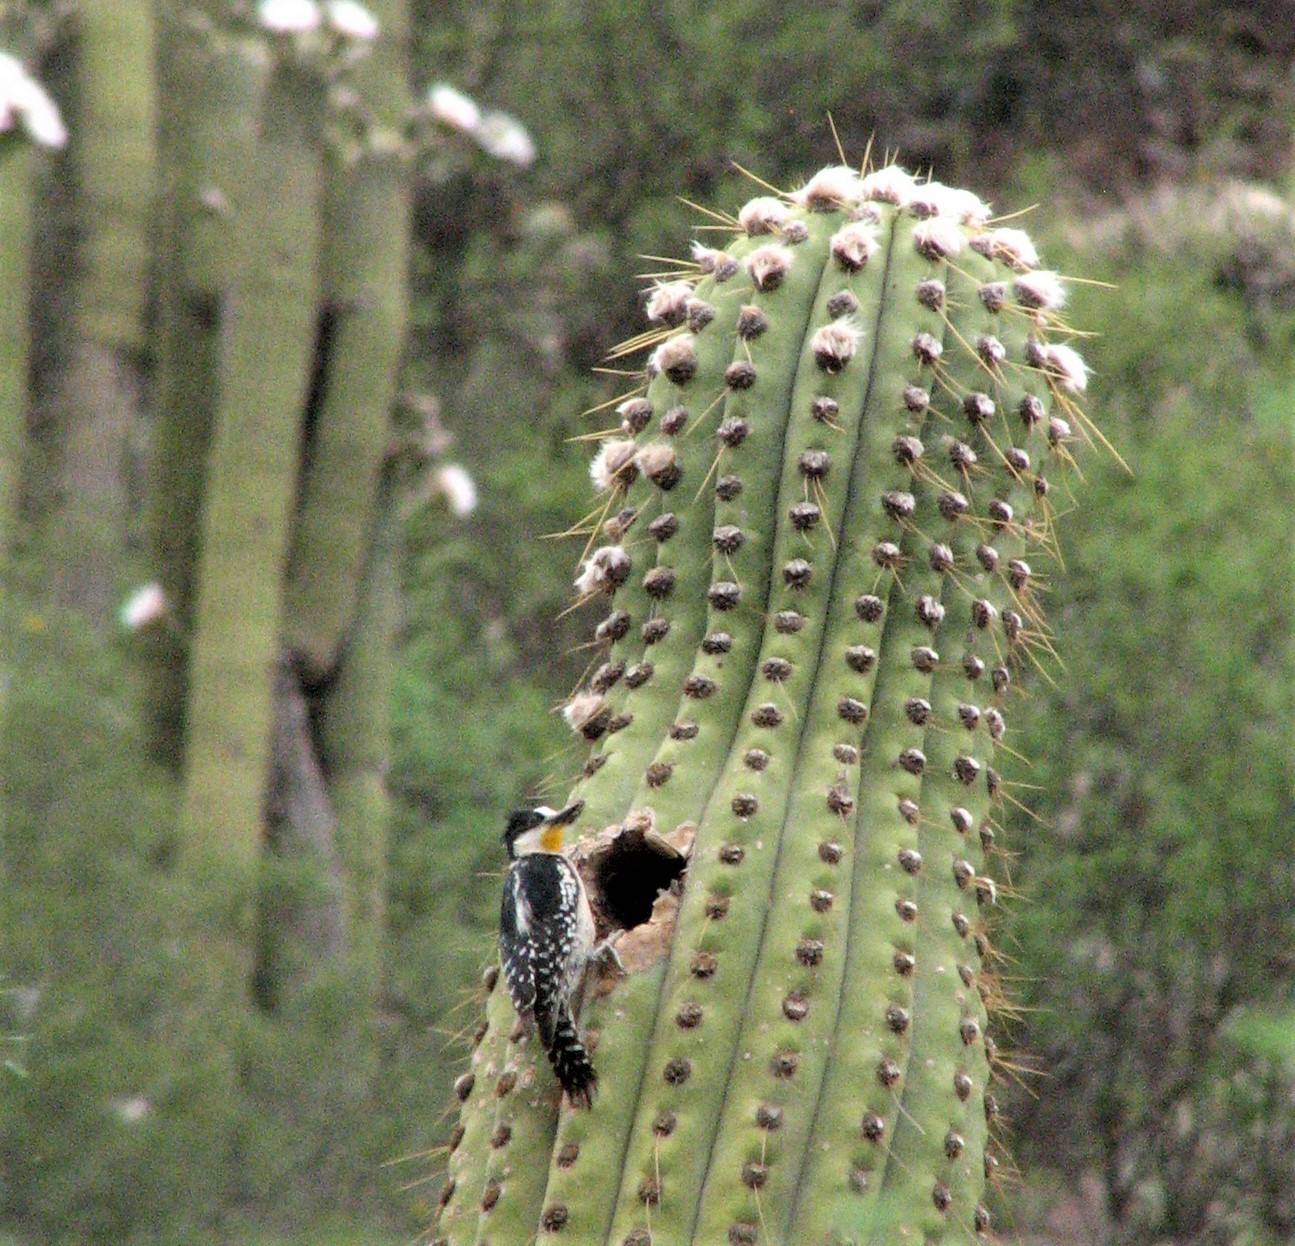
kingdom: Animalia
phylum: Chordata
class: Aves
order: Piciformes
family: Picidae
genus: Melanerpes
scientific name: Melanerpes cactorum
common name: White-fronted woodpecker
